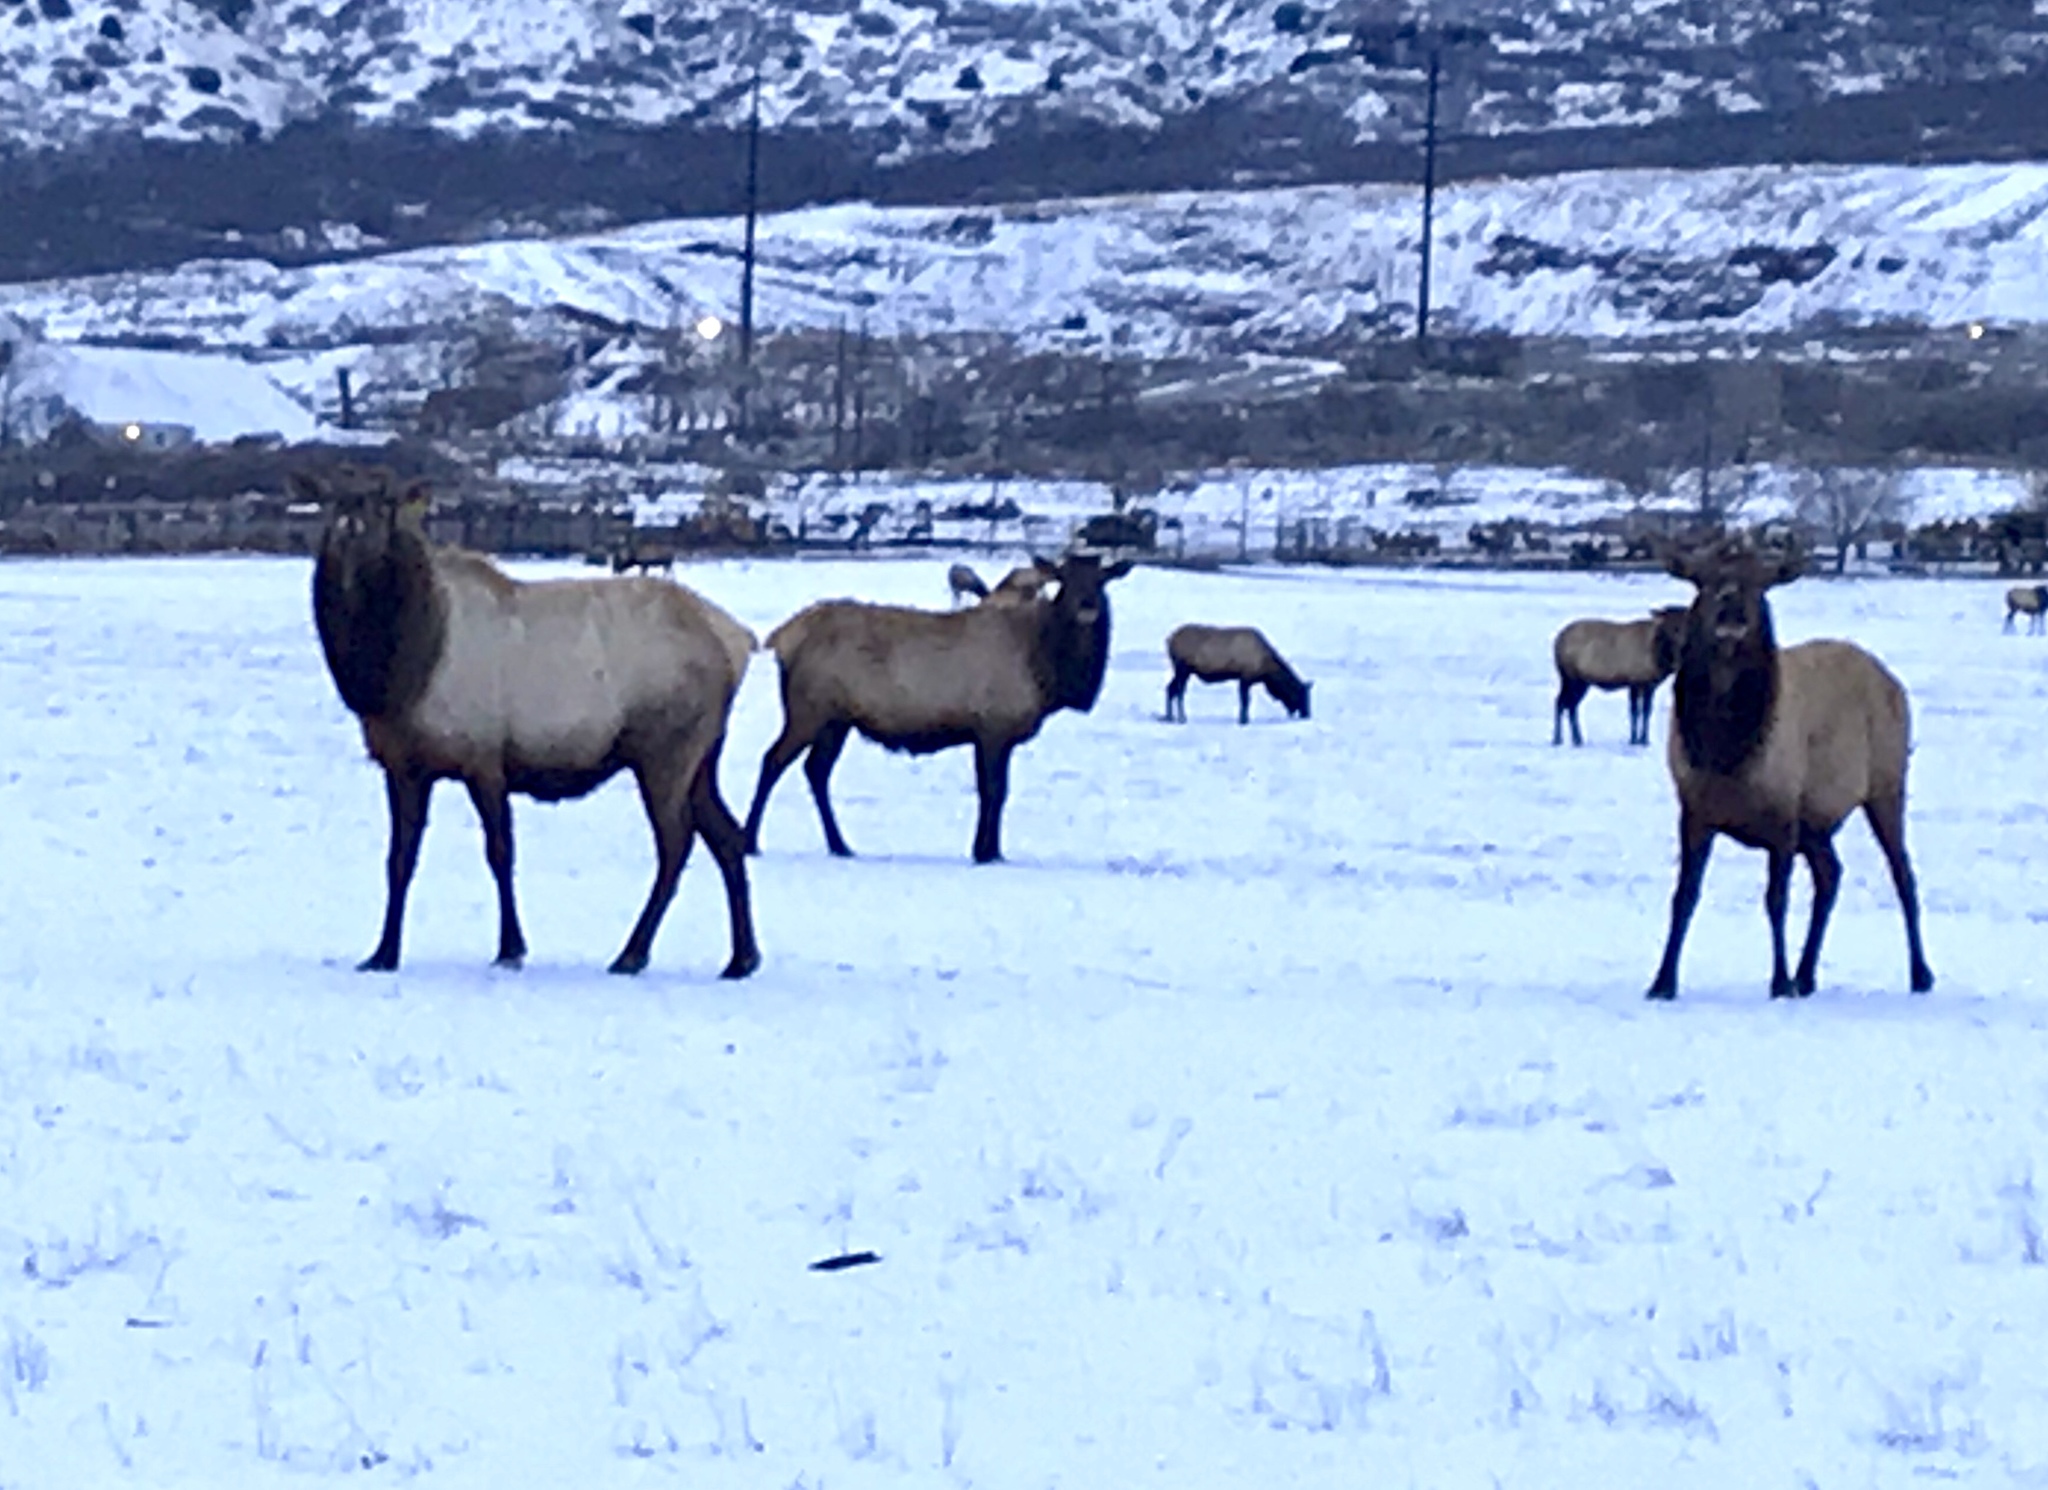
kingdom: Animalia
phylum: Chordata
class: Mammalia
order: Artiodactyla
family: Cervidae
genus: Cervus
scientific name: Cervus elaphus
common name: Red deer
